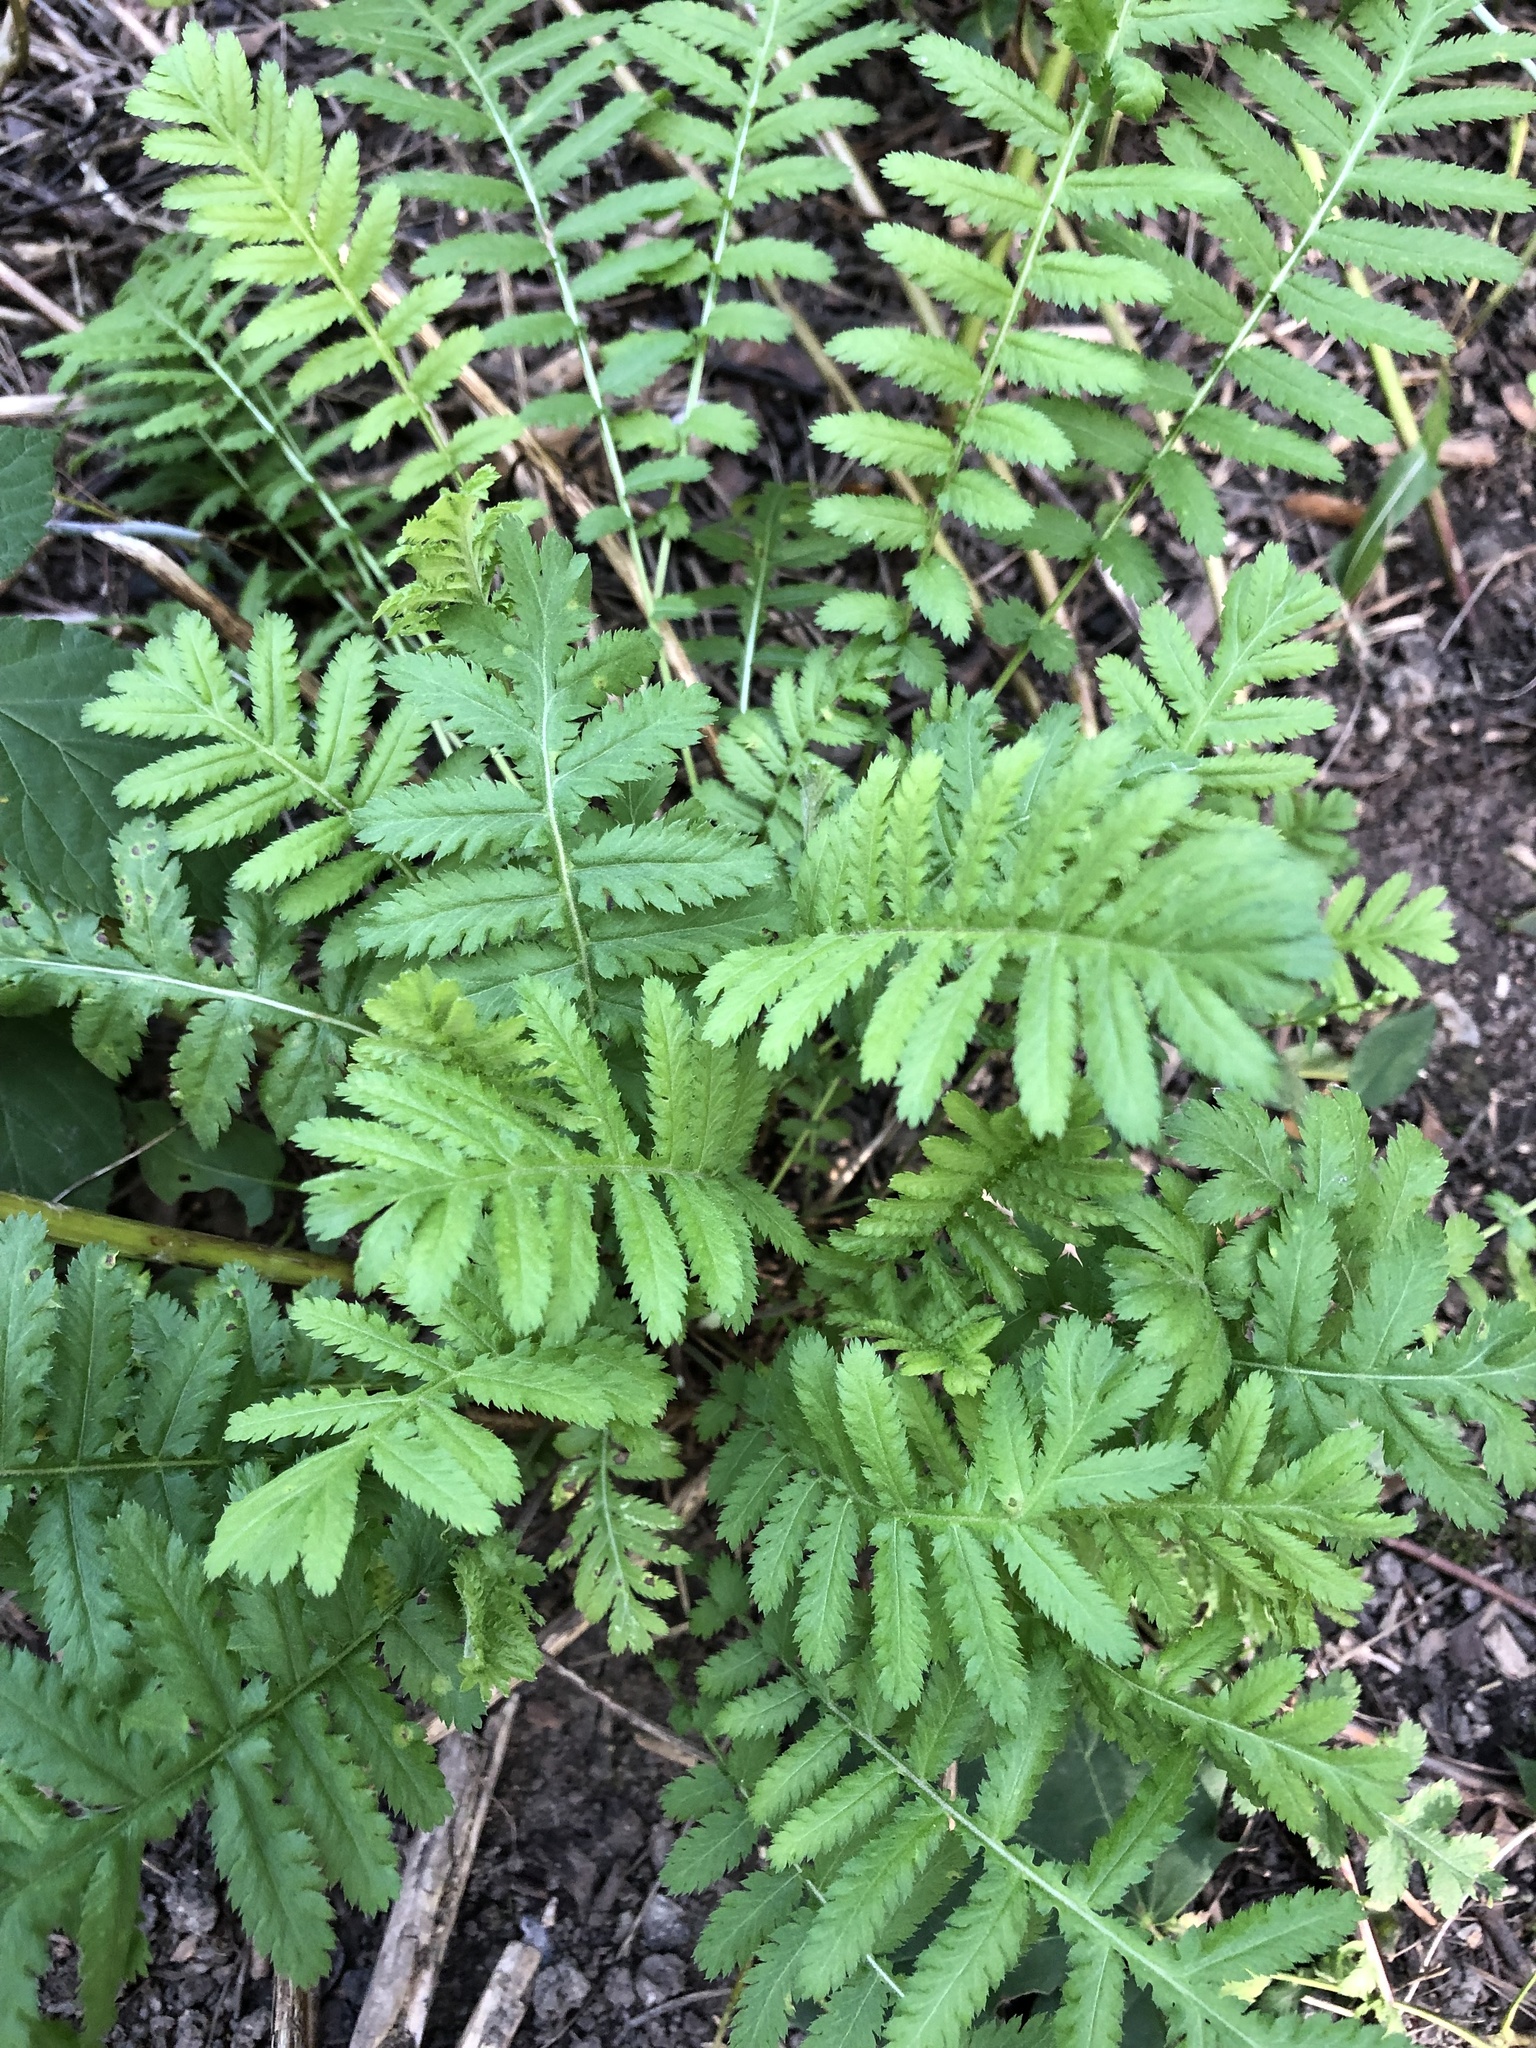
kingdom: Plantae
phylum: Tracheophyta
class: Magnoliopsida
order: Asterales
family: Asteraceae
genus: Tanacetum
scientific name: Tanacetum vulgare
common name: Common tansy
